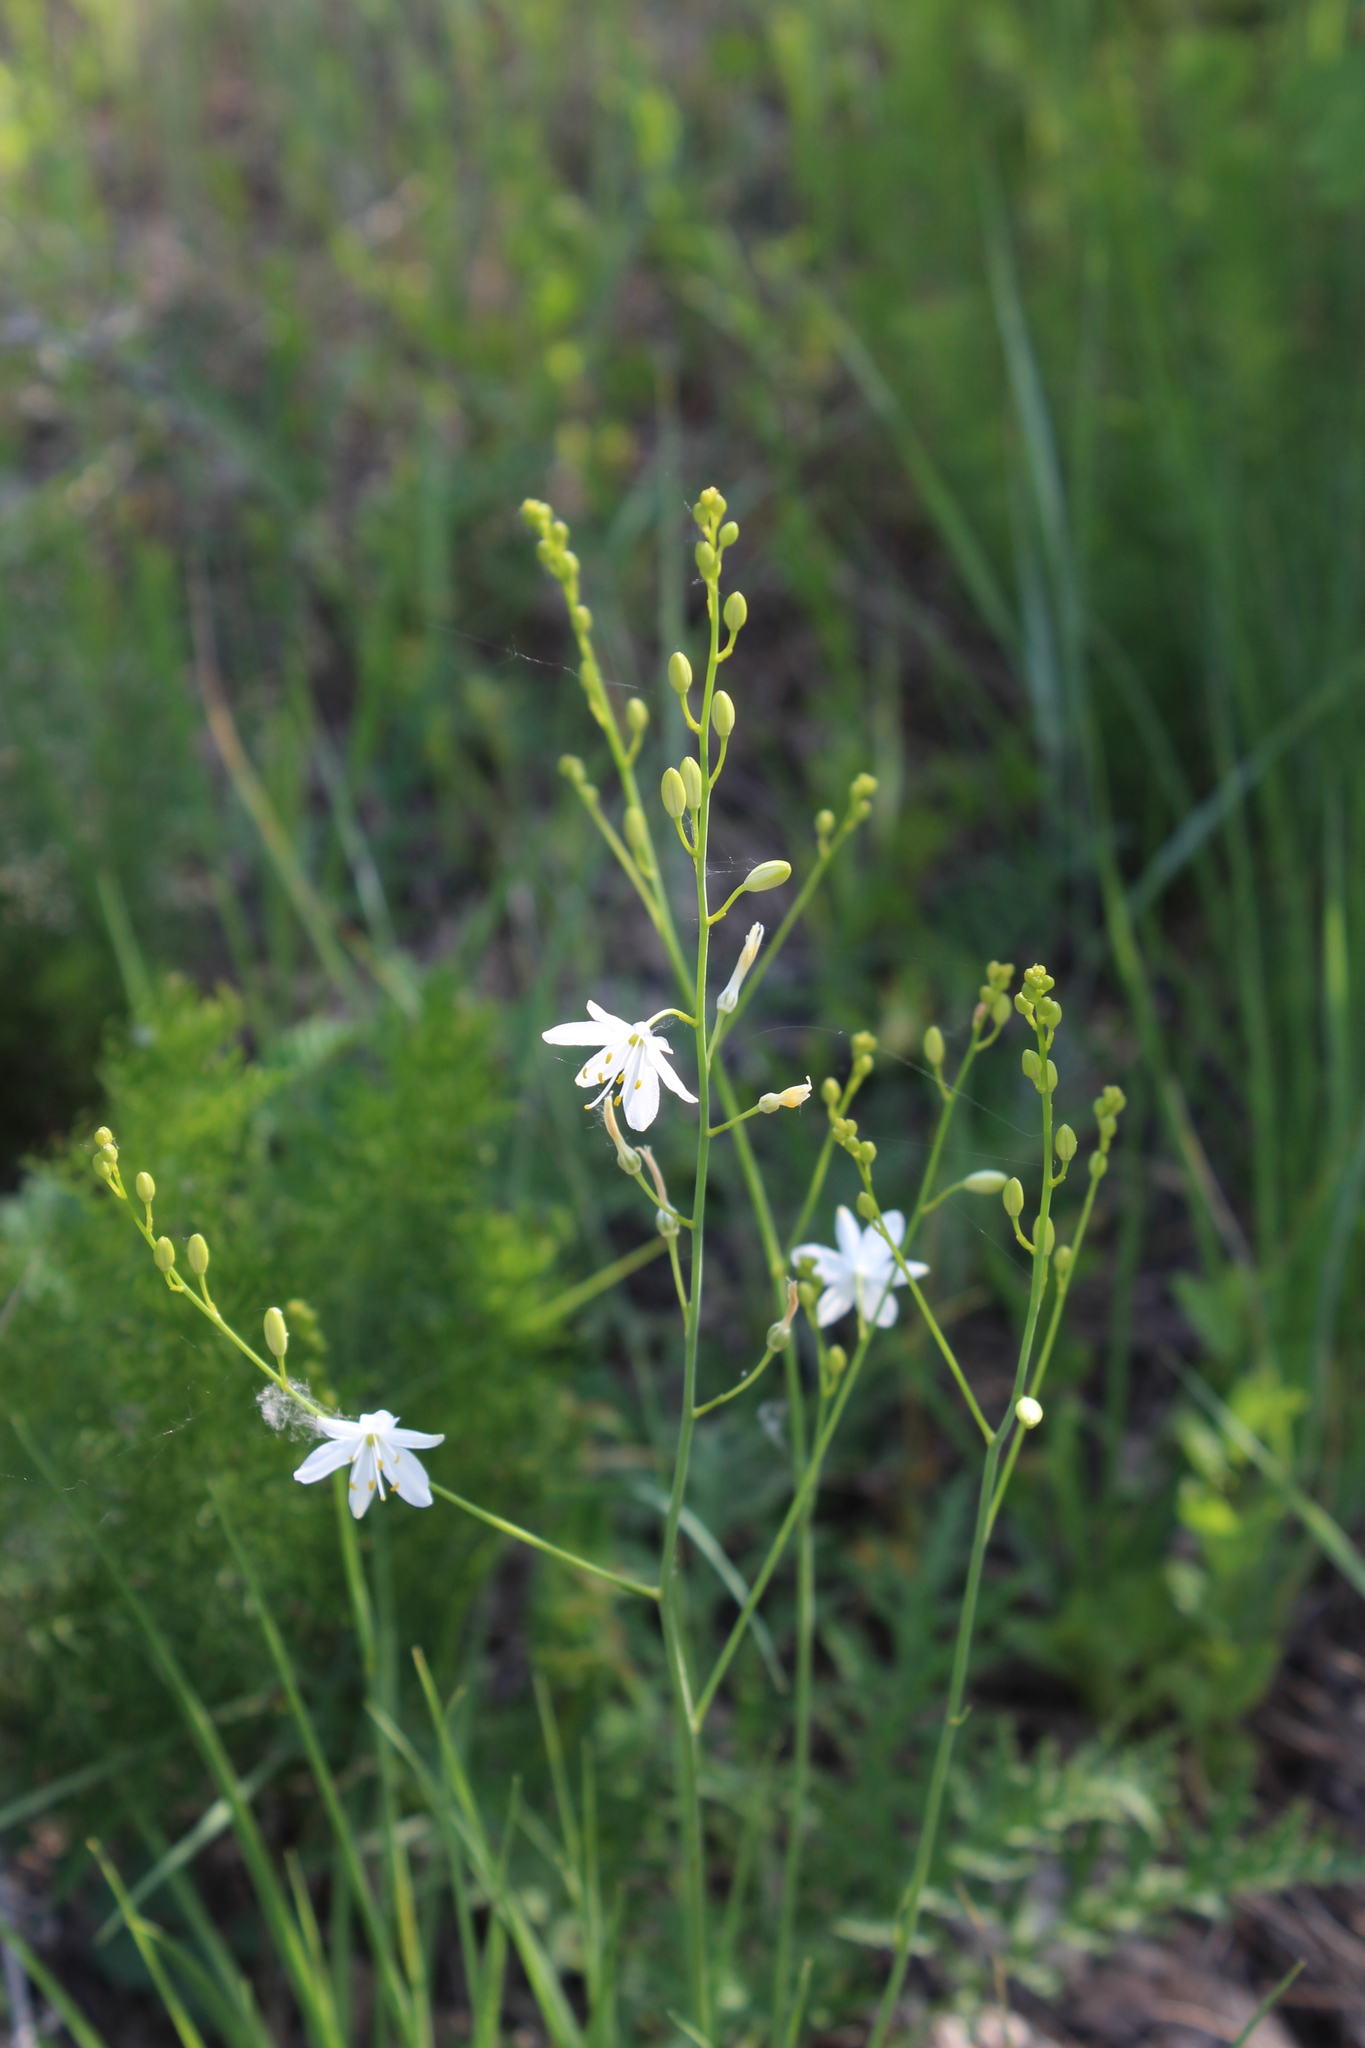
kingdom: Plantae
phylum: Tracheophyta
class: Liliopsida
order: Asparagales
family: Asparagaceae
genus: Anthericum
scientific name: Anthericum ramosum
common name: Branched st. bernard's-lily
